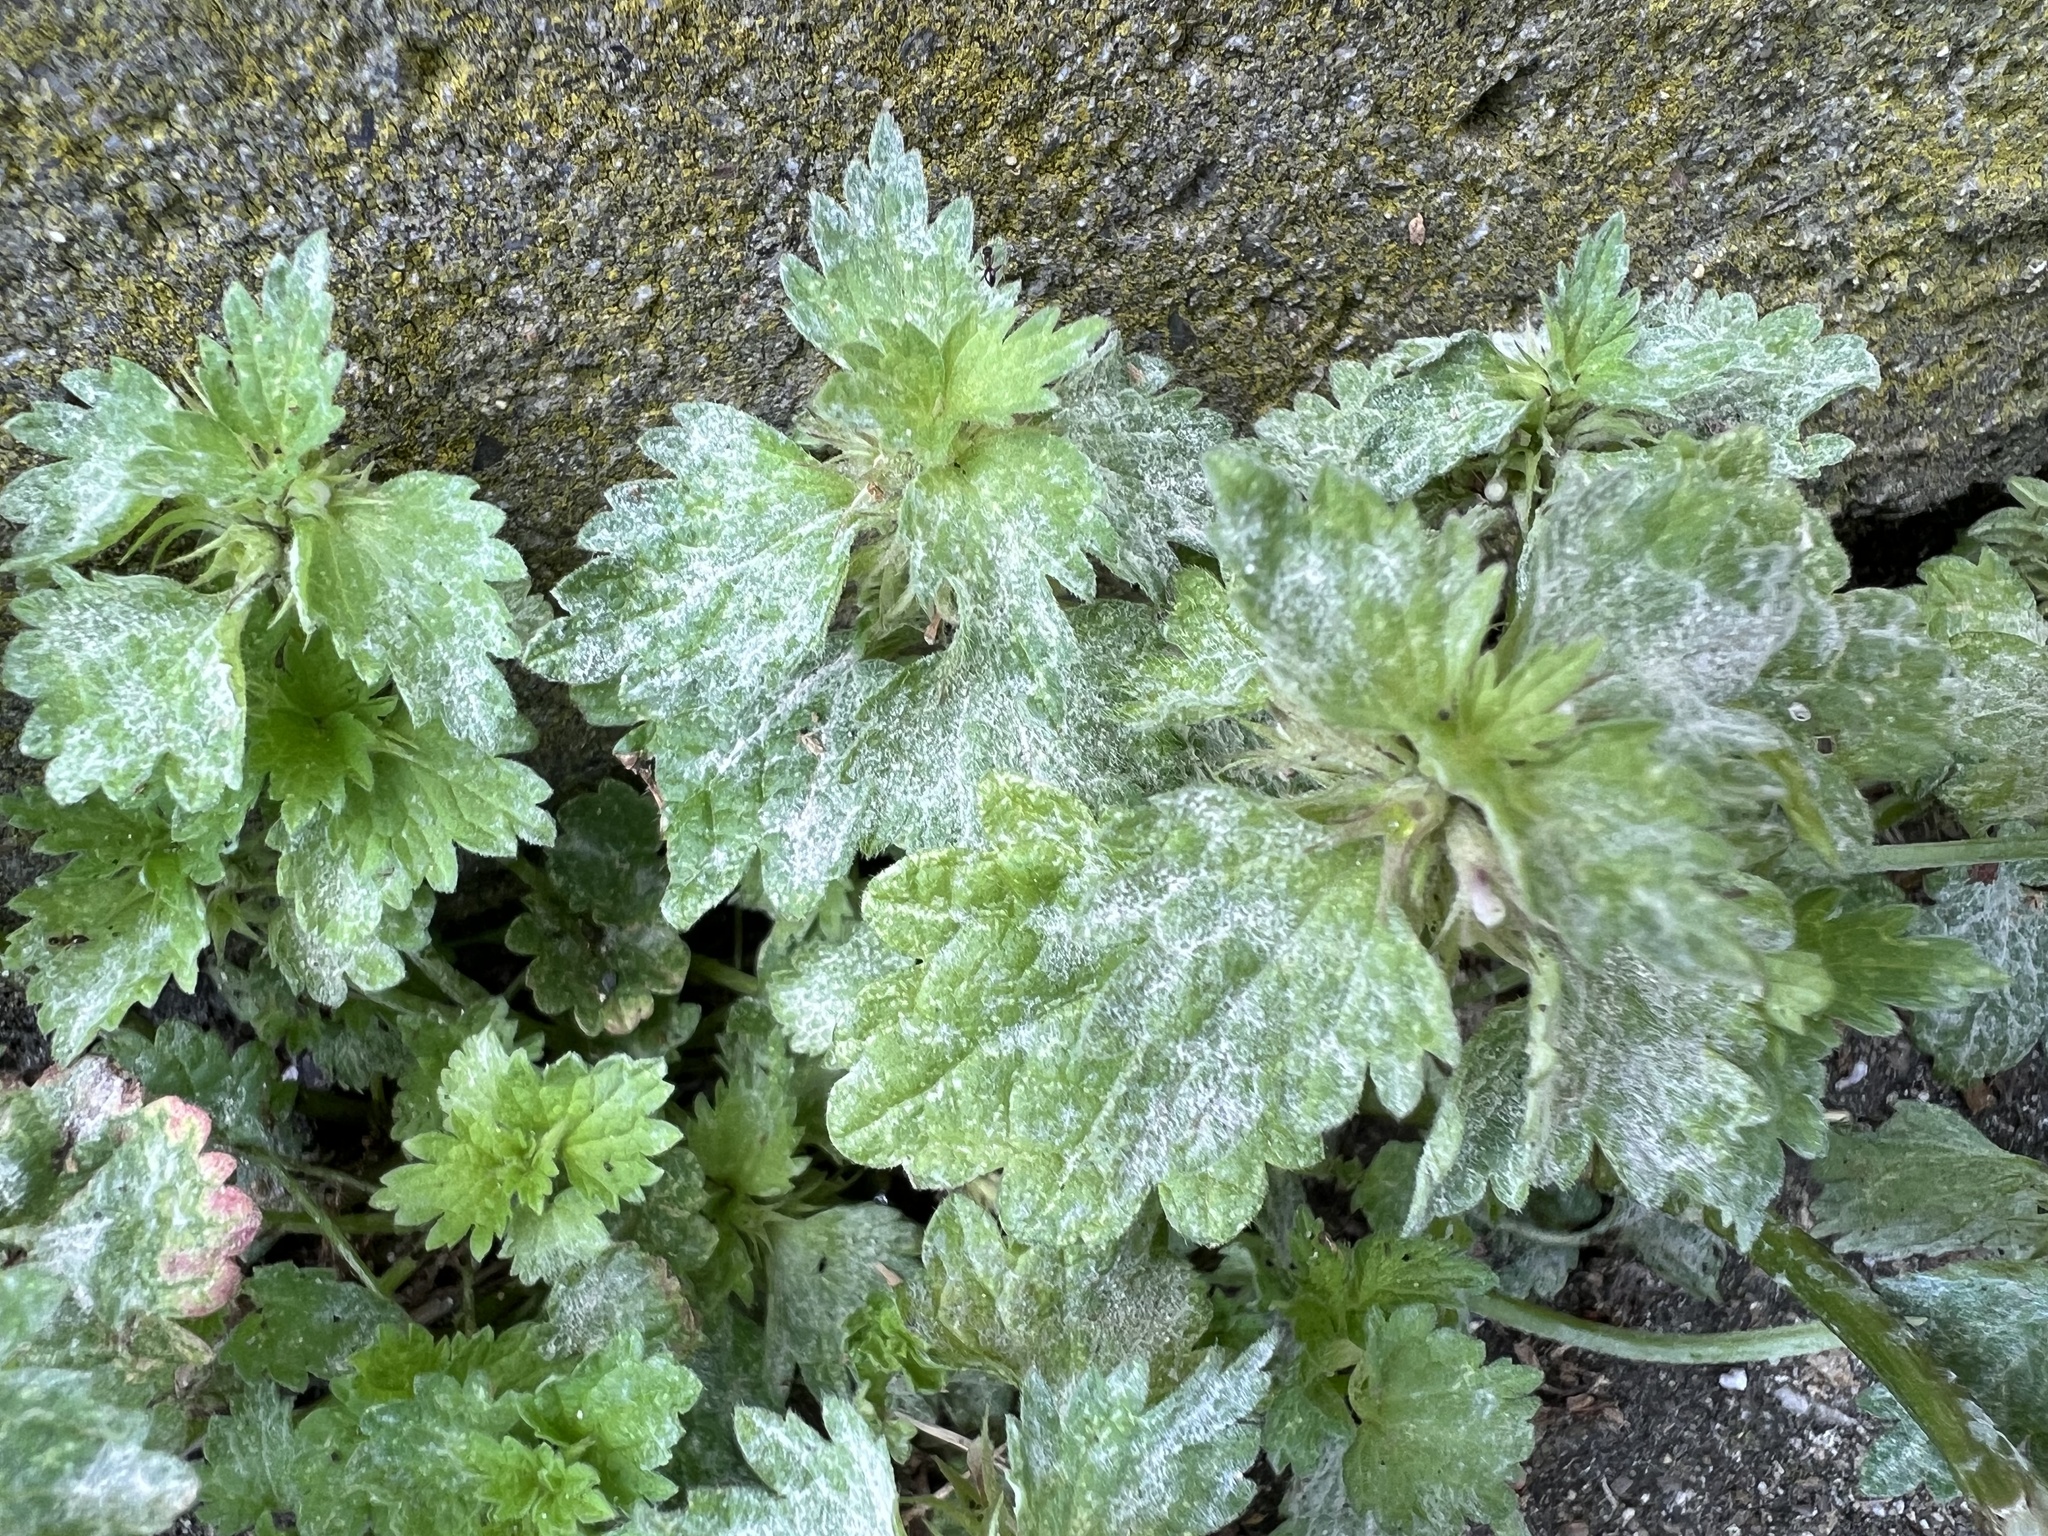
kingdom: Plantae
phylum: Tracheophyta
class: Magnoliopsida
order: Lamiales
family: Lamiaceae
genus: Lamium
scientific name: Lamium hybridum
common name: Cut-leaved dead-nettle
